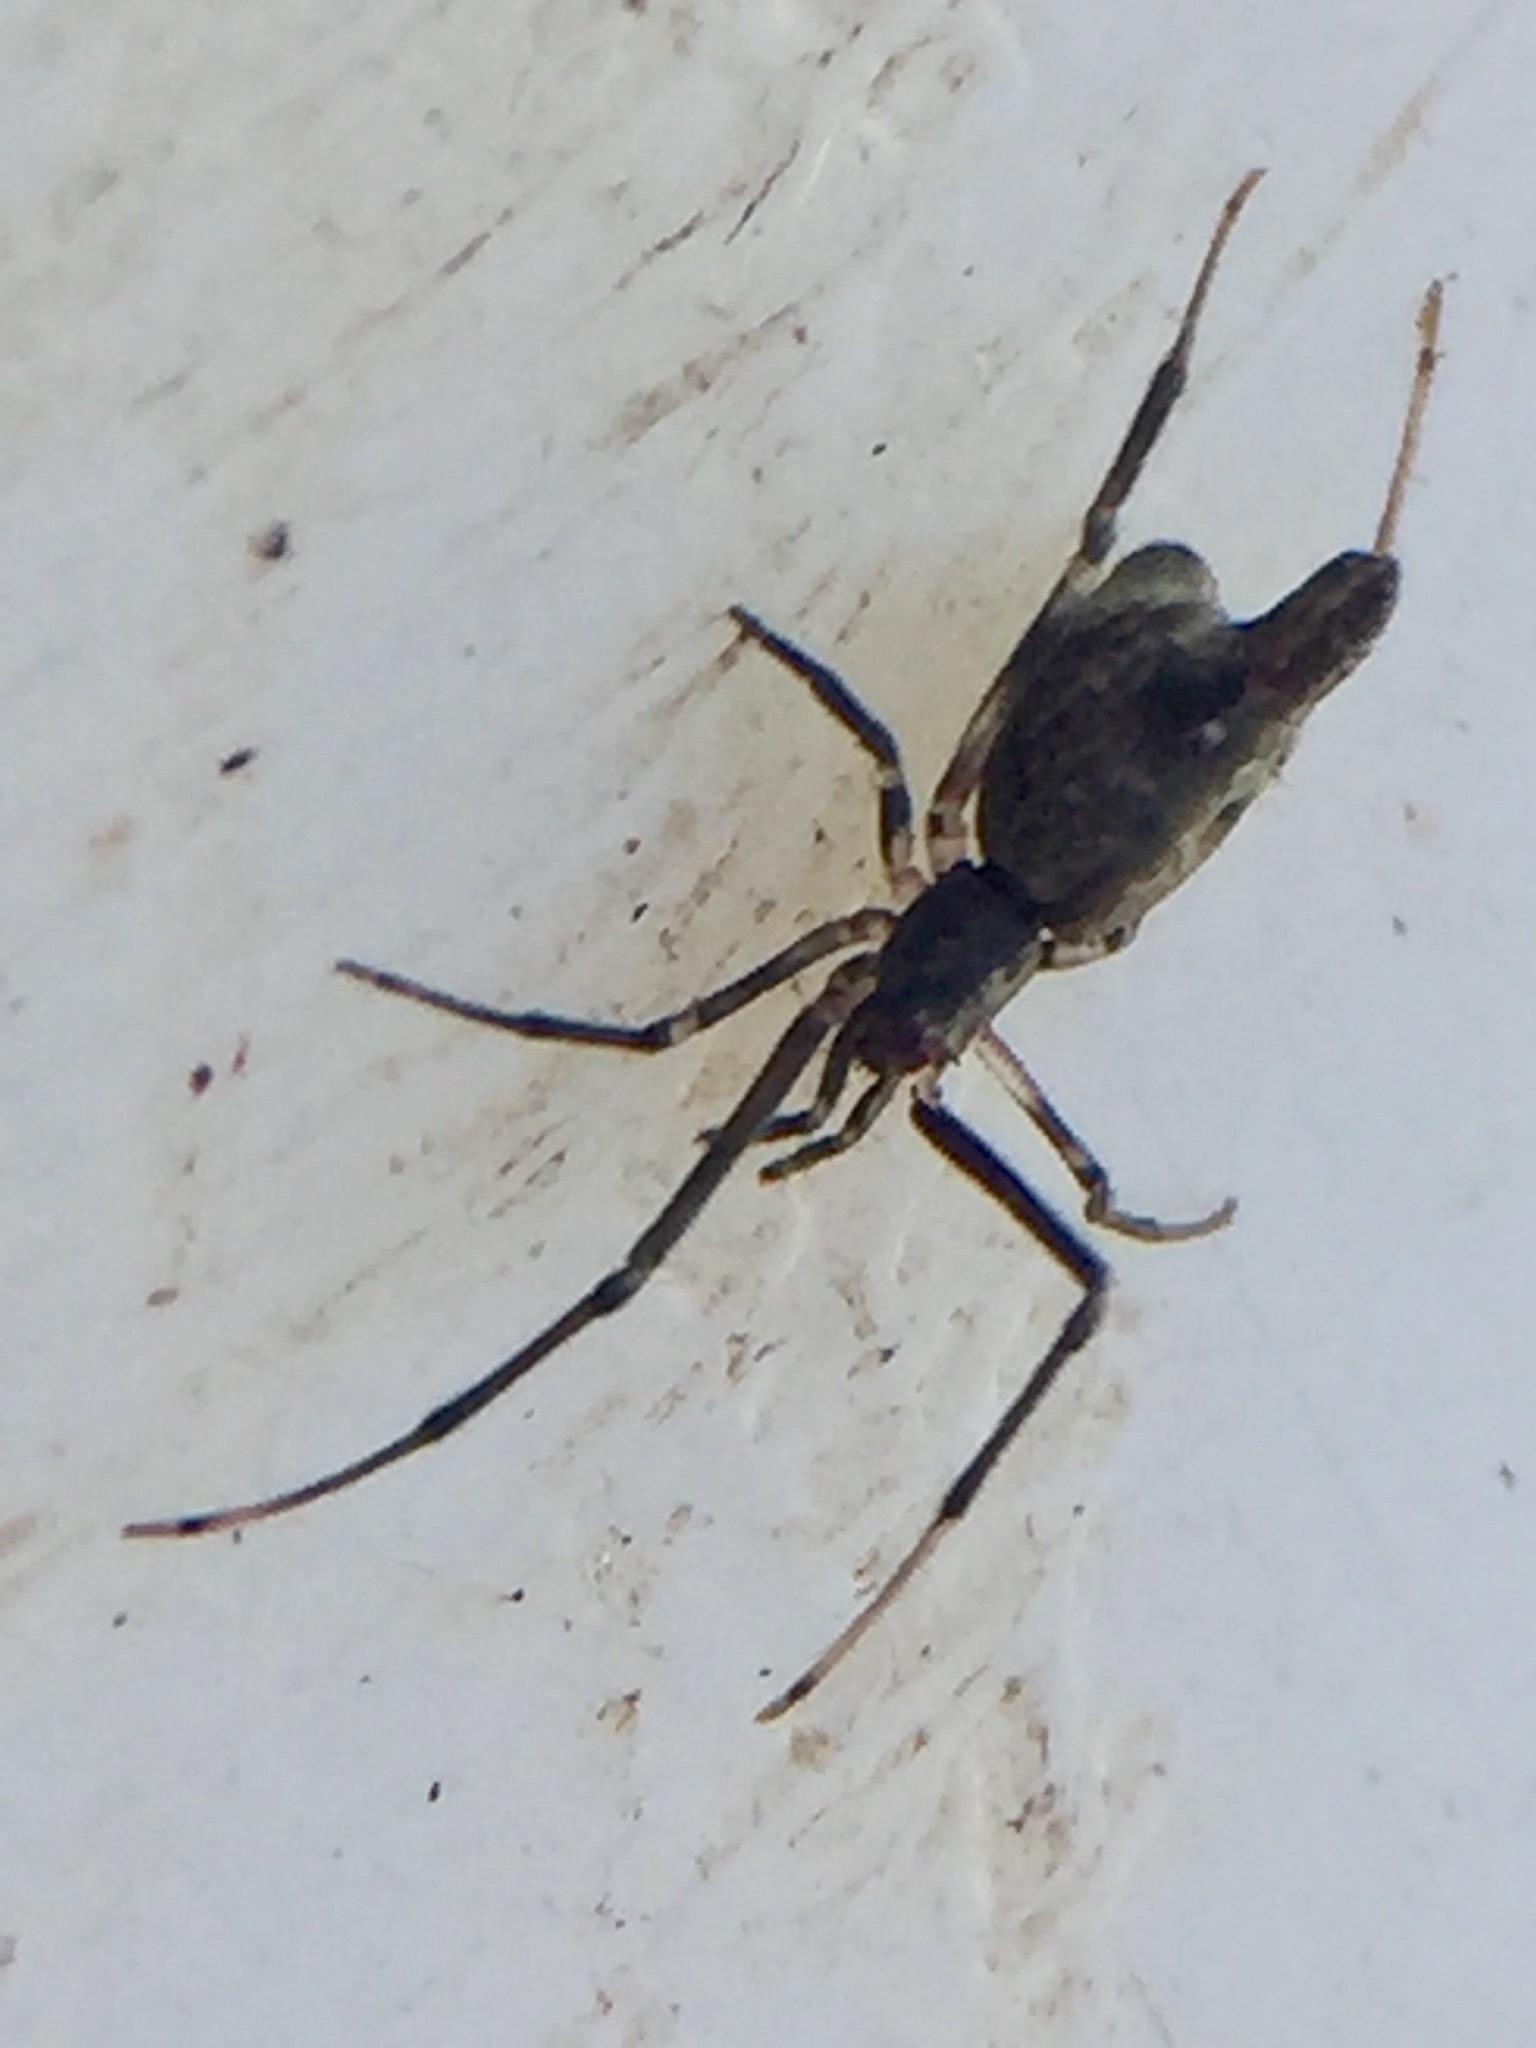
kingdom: Animalia
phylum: Arthropoda
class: Arachnida
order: Araneae
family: Theridiidae
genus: Moneta
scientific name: Moneta conifera
